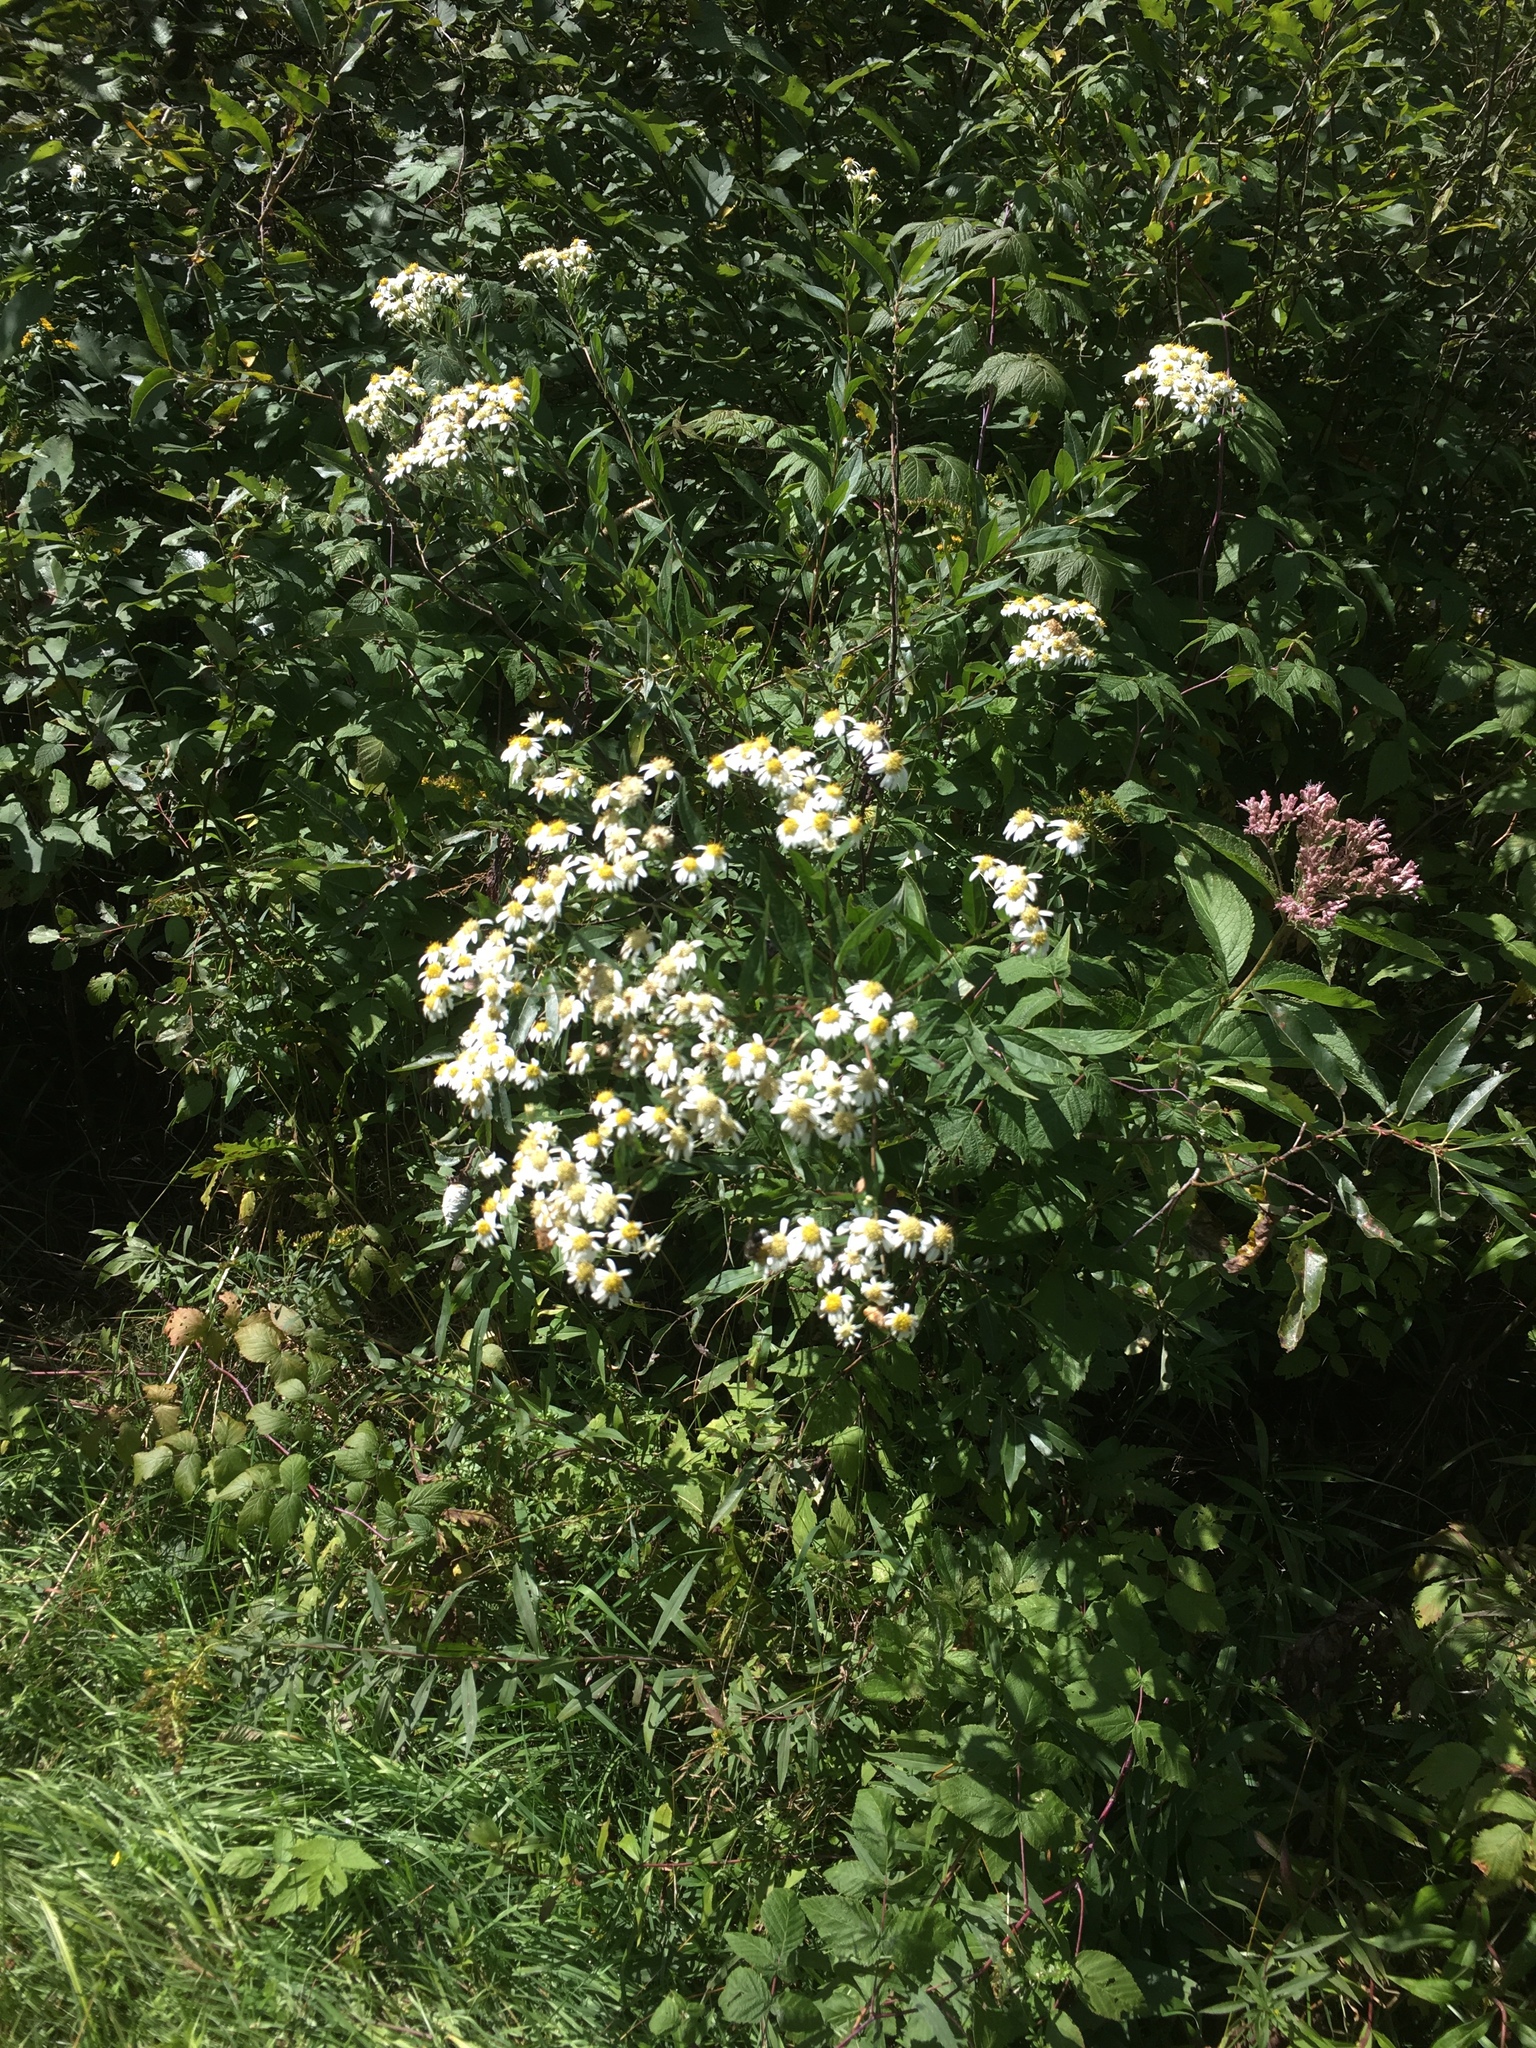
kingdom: Plantae
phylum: Tracheophyta
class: Magnoliopsida
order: Asterales
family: Asteraceae
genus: Doellingeria
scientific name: Doellingeria umbellata
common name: Flat-top white aster
